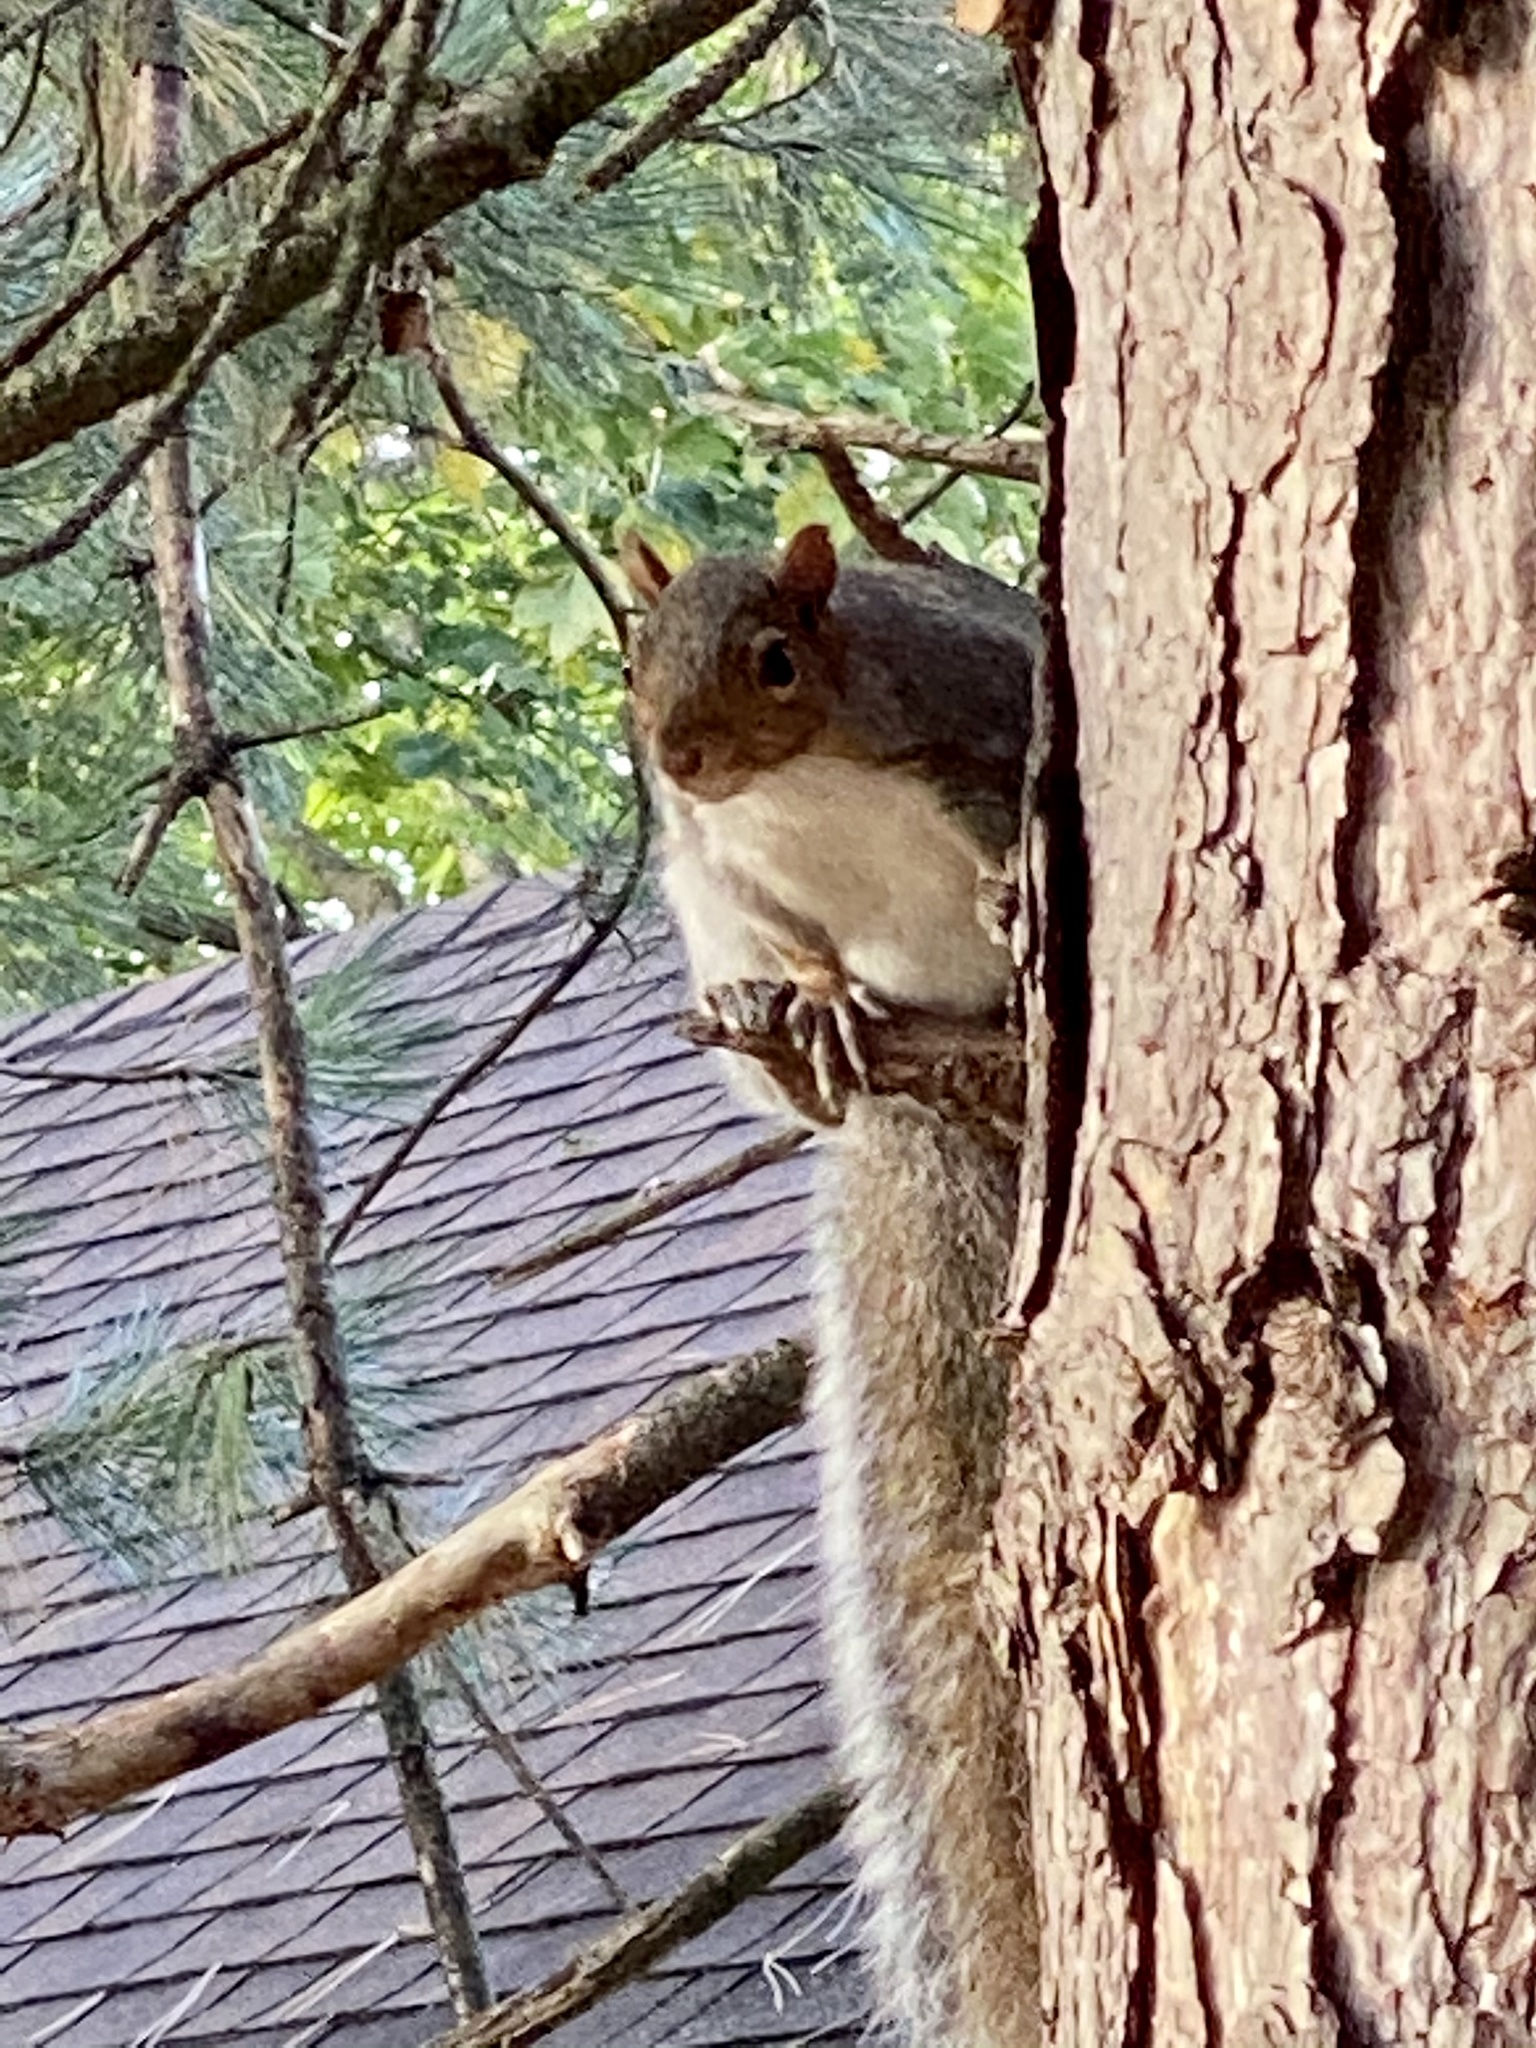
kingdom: Animalia
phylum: Chordata
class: Mammalia
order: Rodentia
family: Sciuridae
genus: Sciurus
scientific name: Sciurus carolinensis
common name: Eastern gray squirrel
